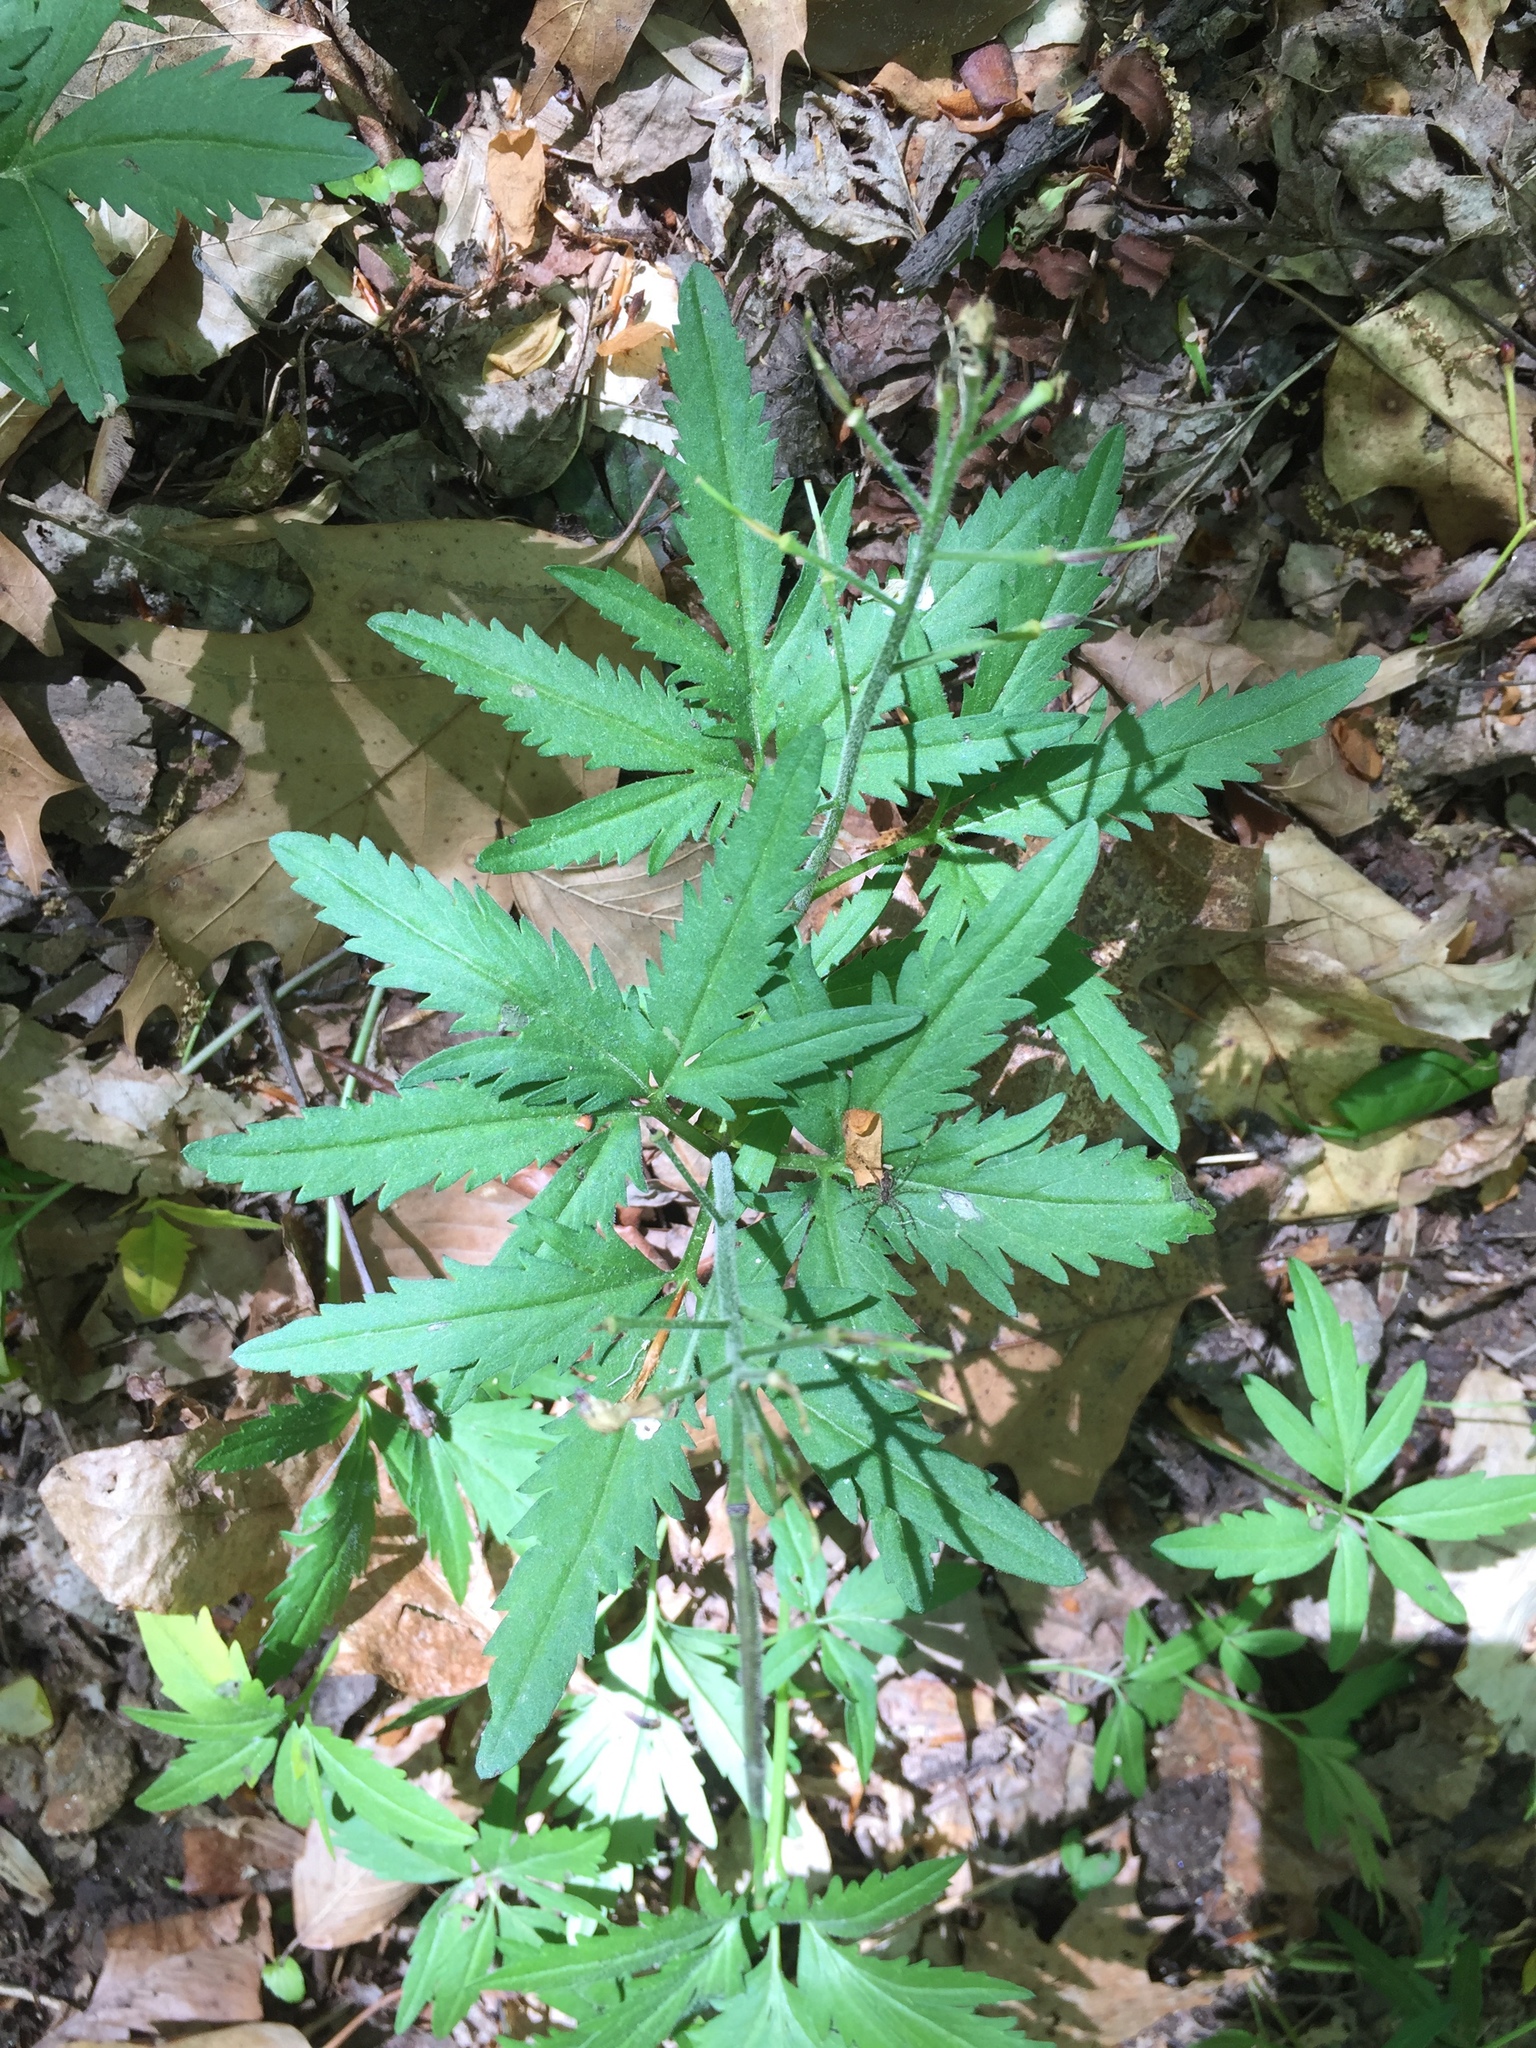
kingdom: Plantae
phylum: Tracheophyta
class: Magnoliopsida
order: Brassicales
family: Brassicaceae
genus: Cardamine
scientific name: Cardamine concatenata
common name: Cut-leaf toothcup
